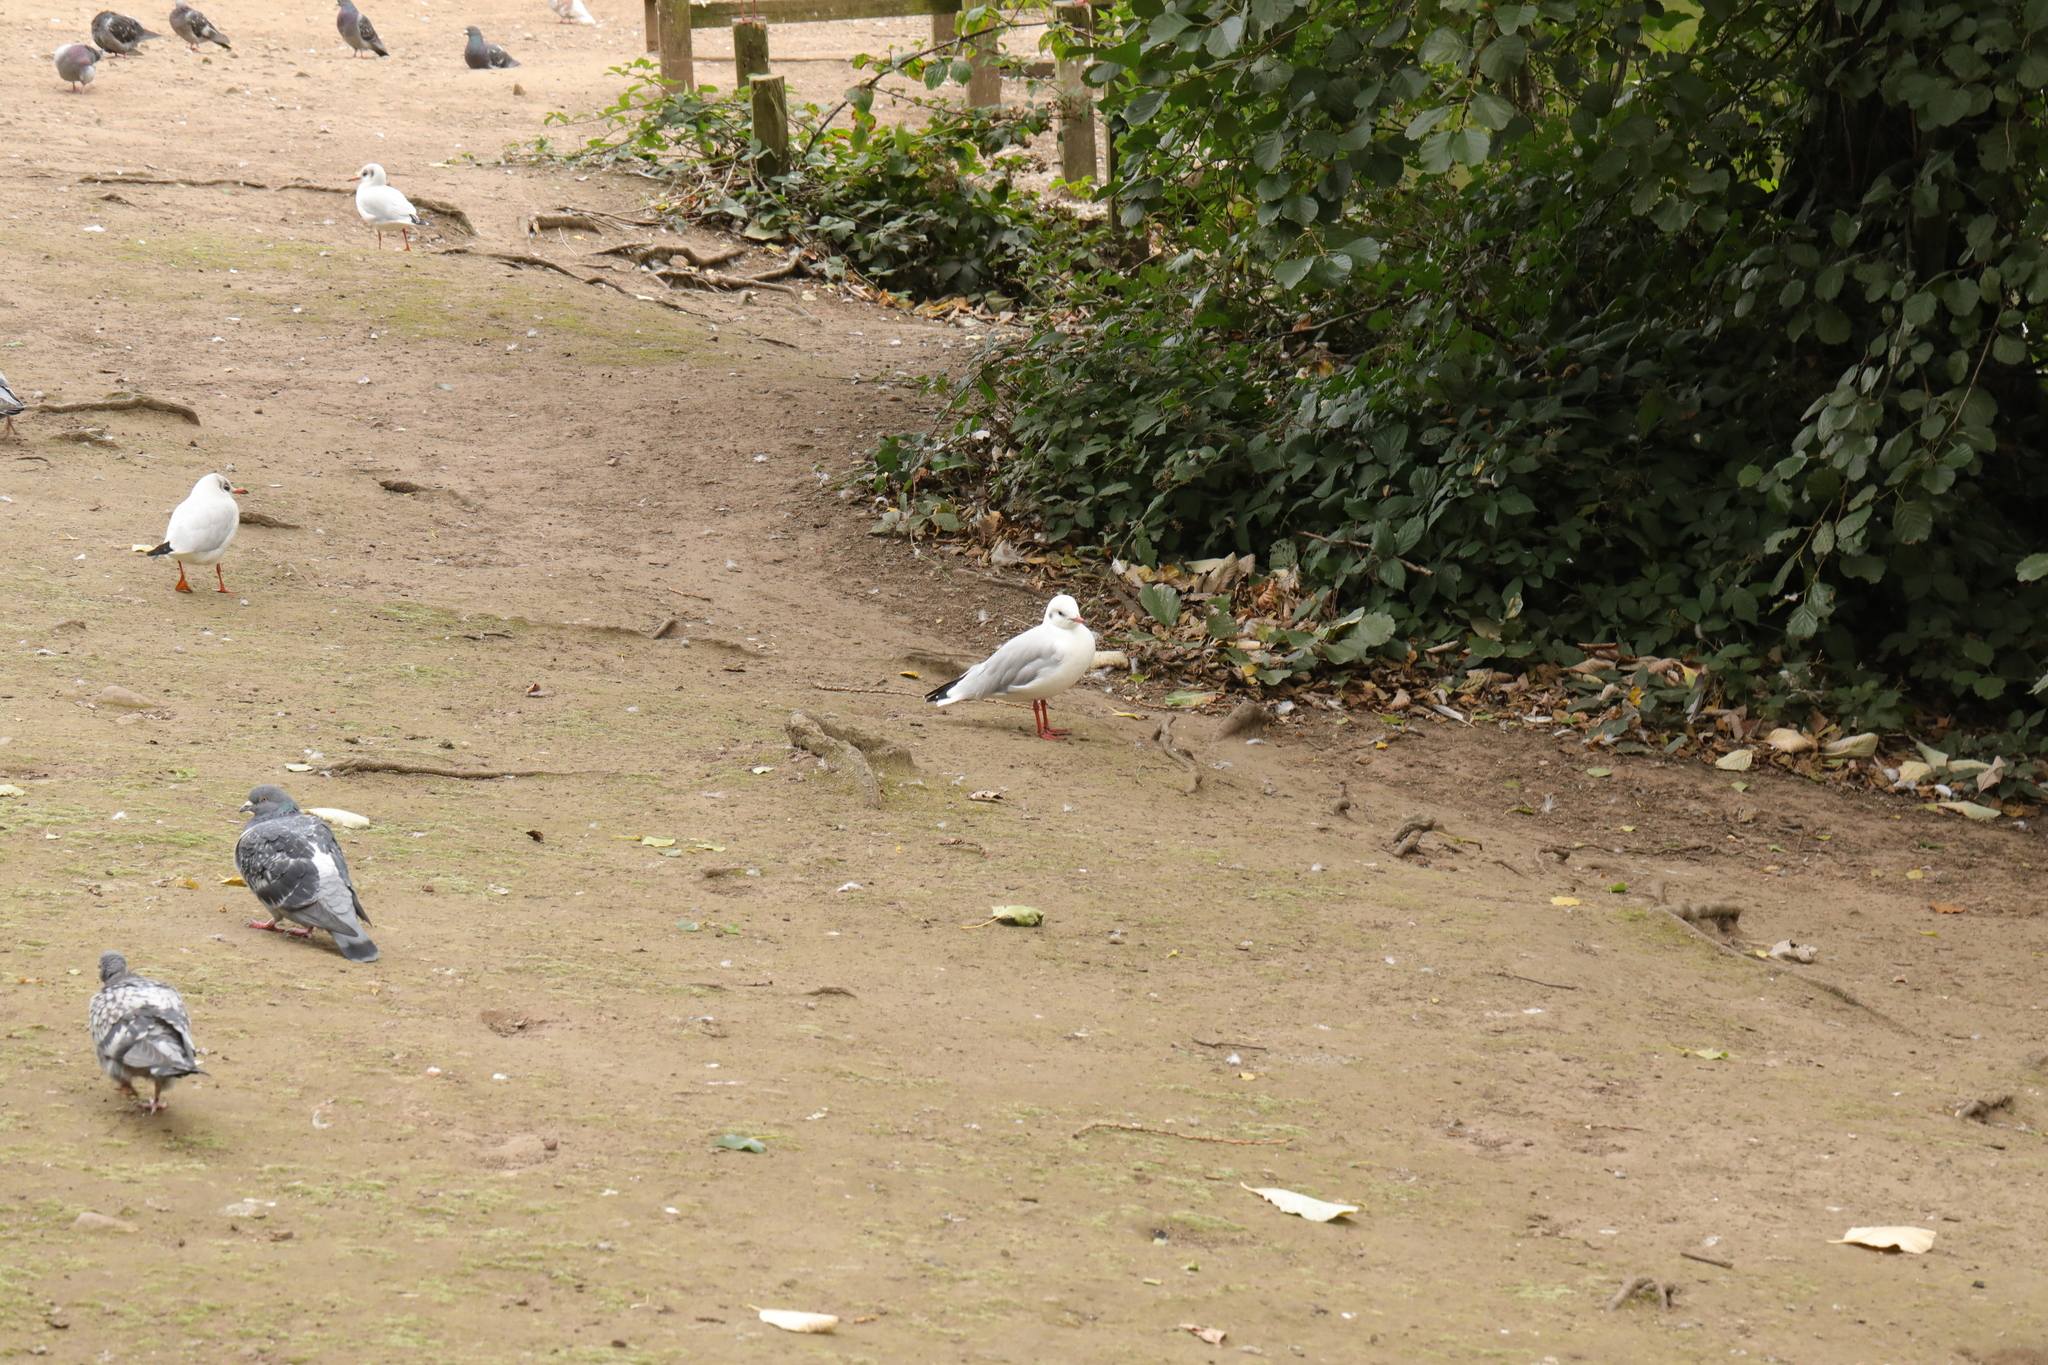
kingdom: Animalia
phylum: Chordata
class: Aves
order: Charadriiformes
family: Laridae
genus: Chroicocephalus
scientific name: Chroicocephalus ridibundus
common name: Black-headed gull
